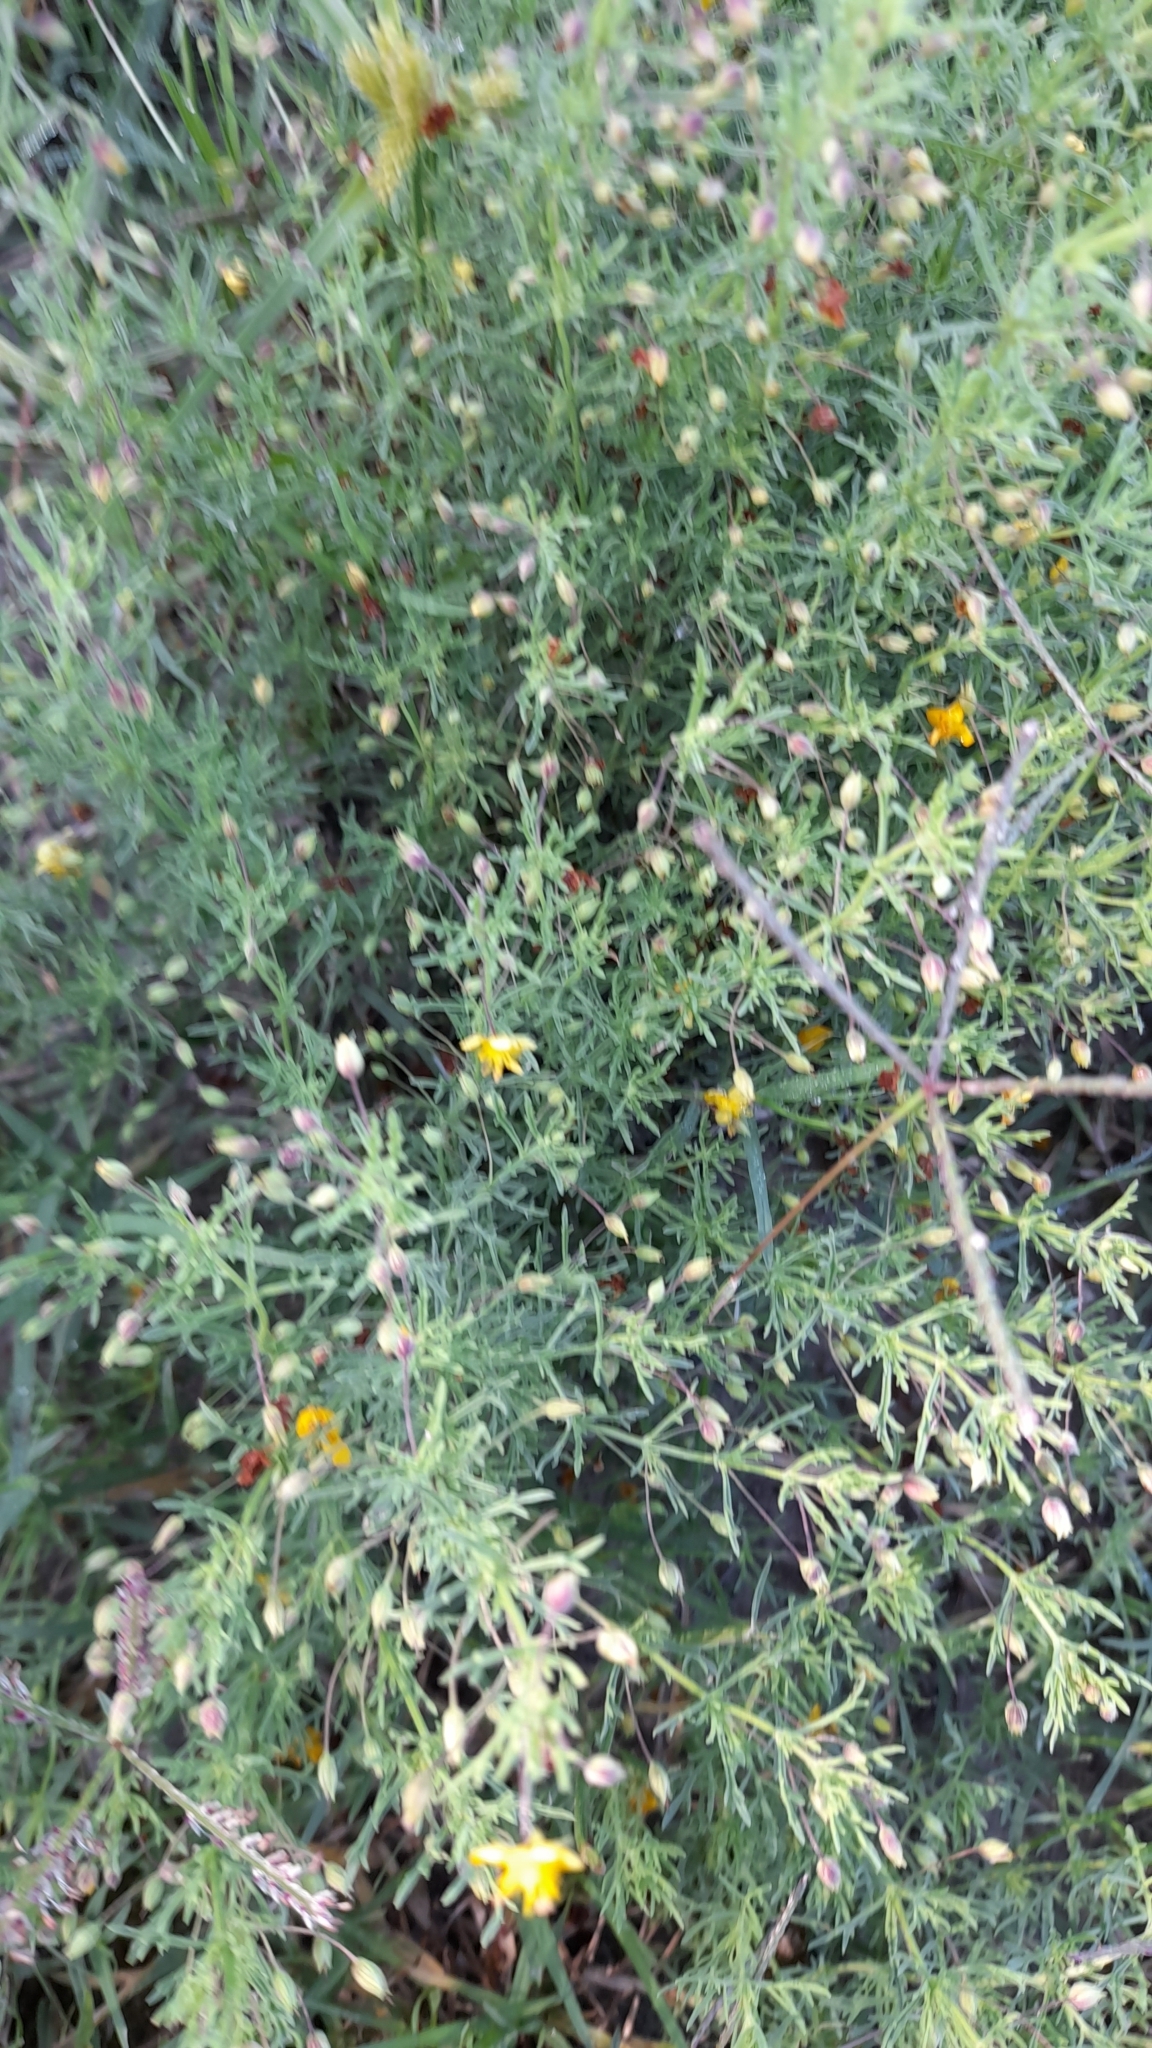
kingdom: Plantae
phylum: Tracheophyta
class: Magnoliopsida
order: Lamiales
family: Plantaginaceae
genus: Scoparia
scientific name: Scoparia montevidensis
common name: Broomwort
